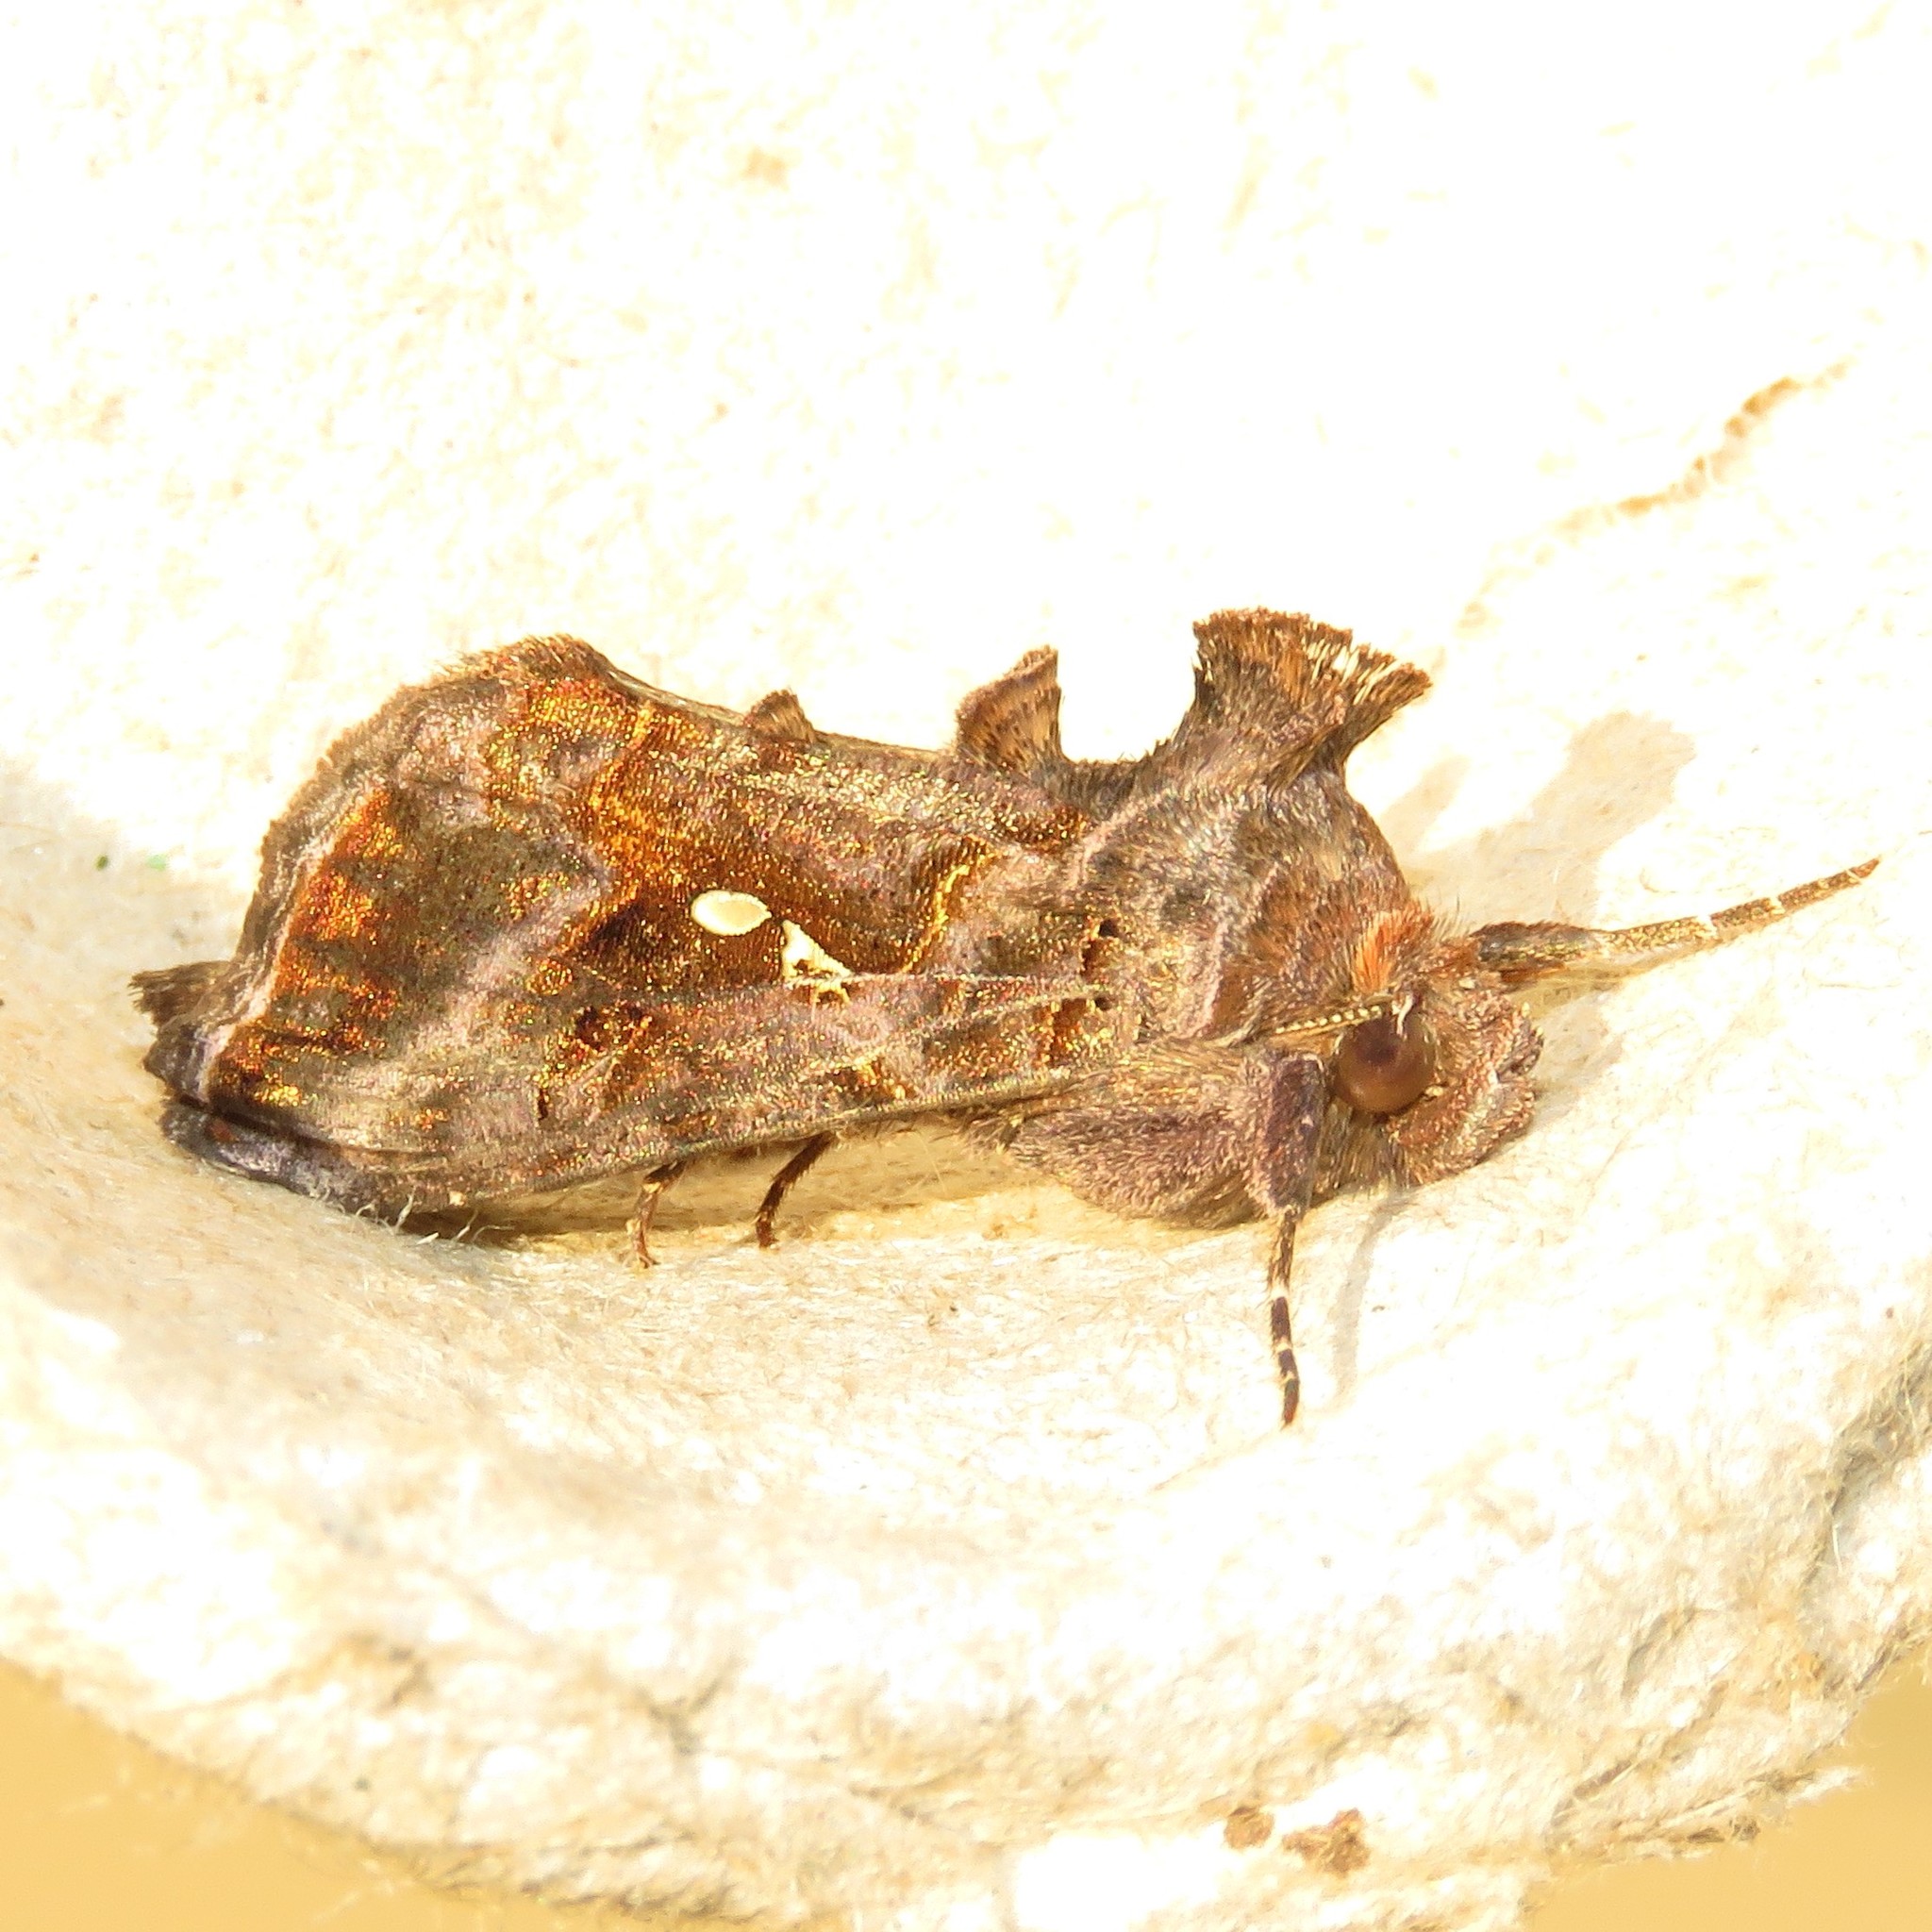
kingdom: Animalia
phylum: Arthropoda
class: Insecta
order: Lepidoptera
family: Noctuidae
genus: Autographa
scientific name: Autographa precationis
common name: Common looper moth
